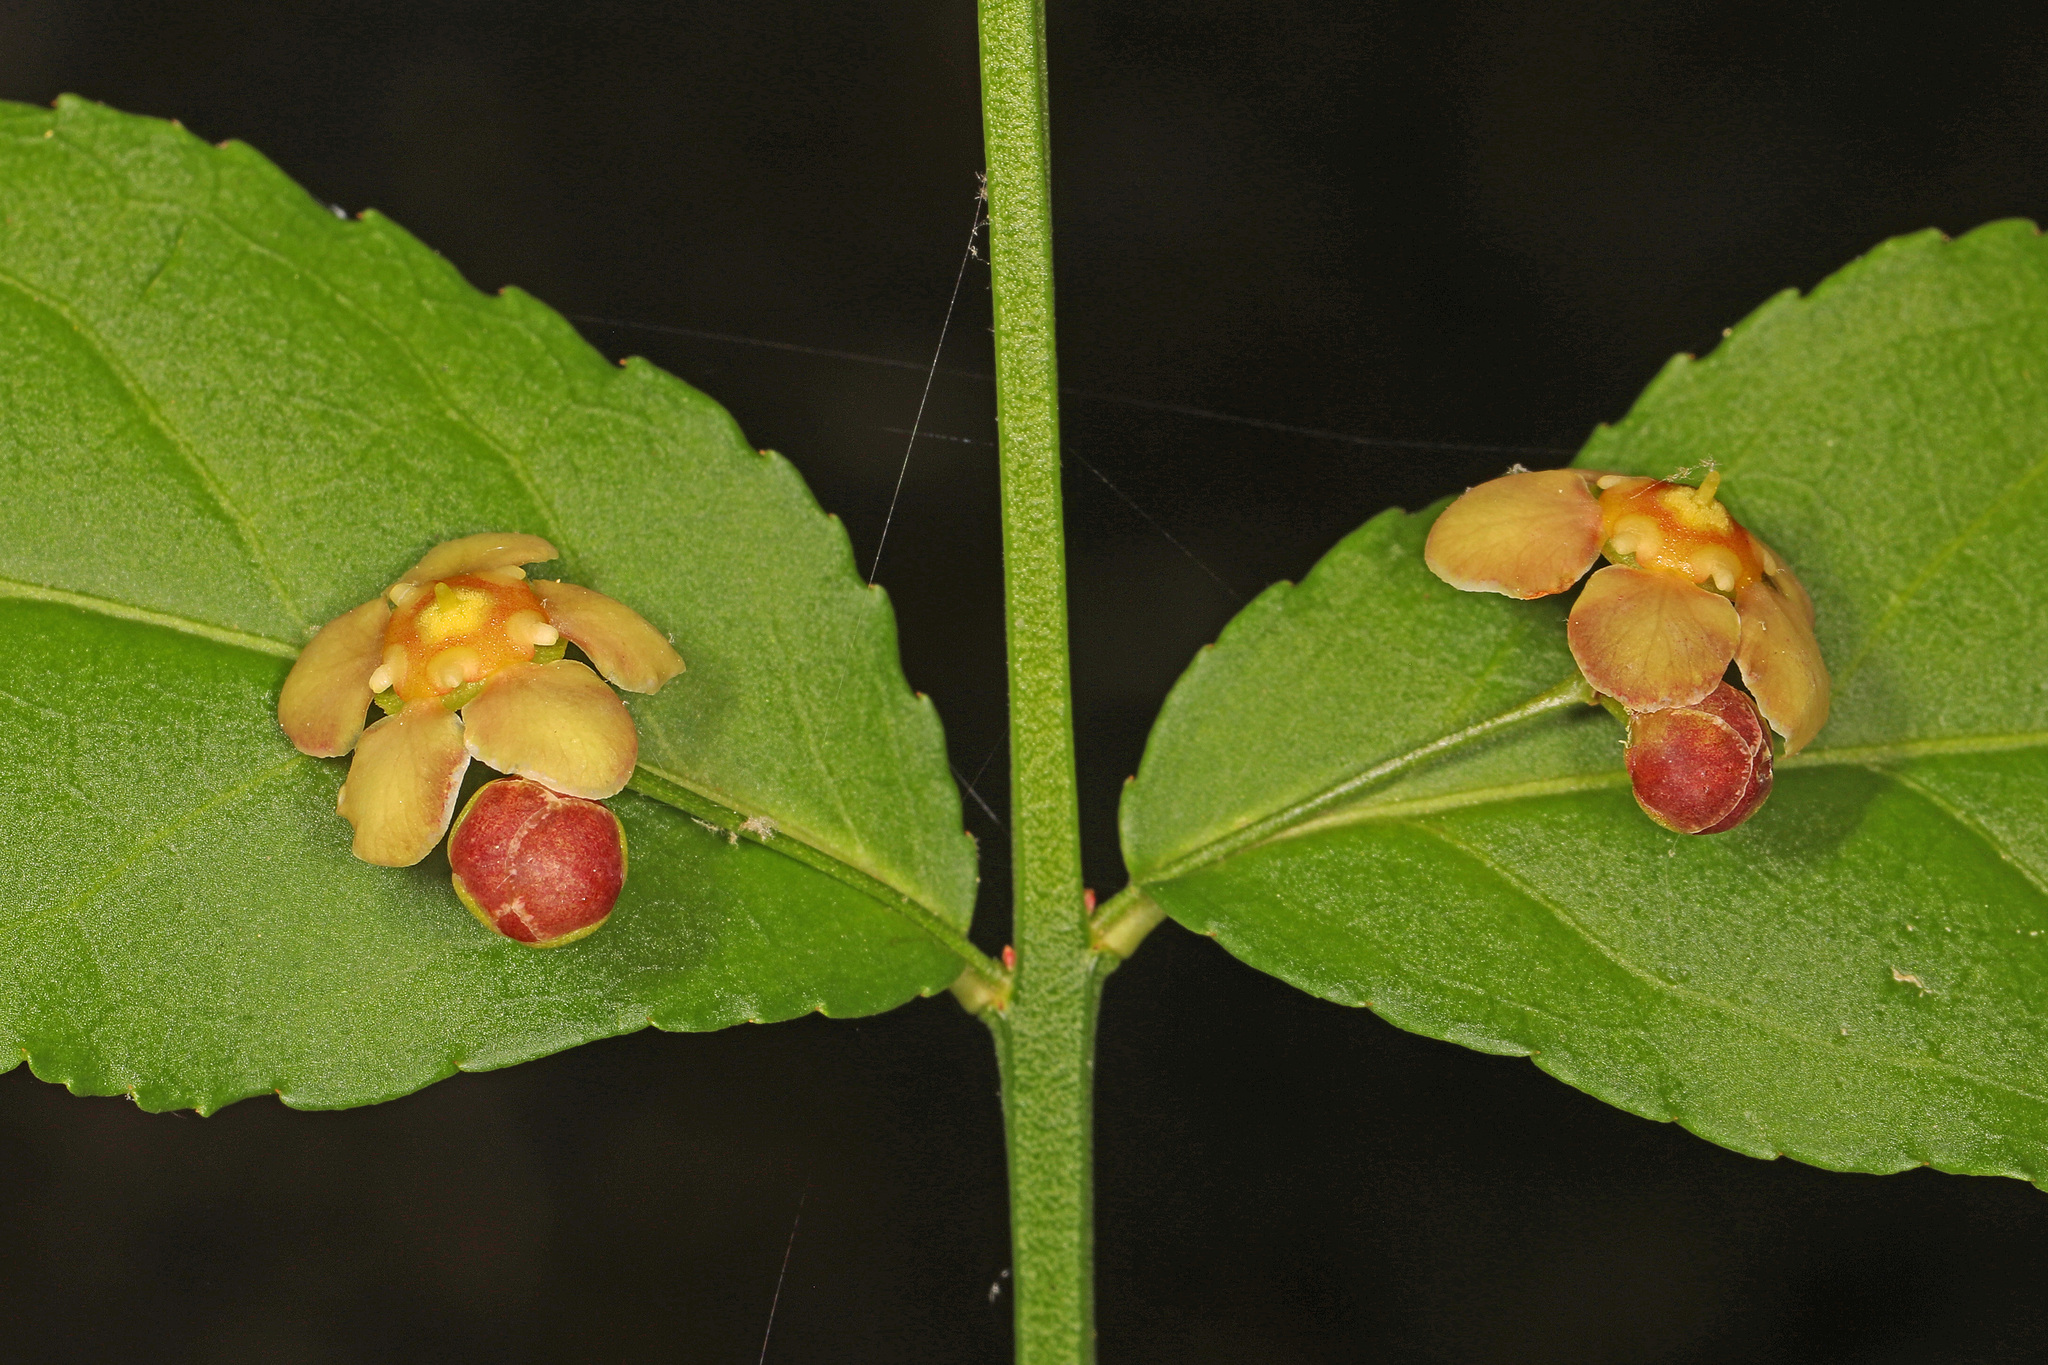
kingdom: Plantae
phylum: Tracheophyta
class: Magnoliopsida
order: Celastrales
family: Celastraceae
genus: Euonymus
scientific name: Euonymus americanus
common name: Bursting-heart
